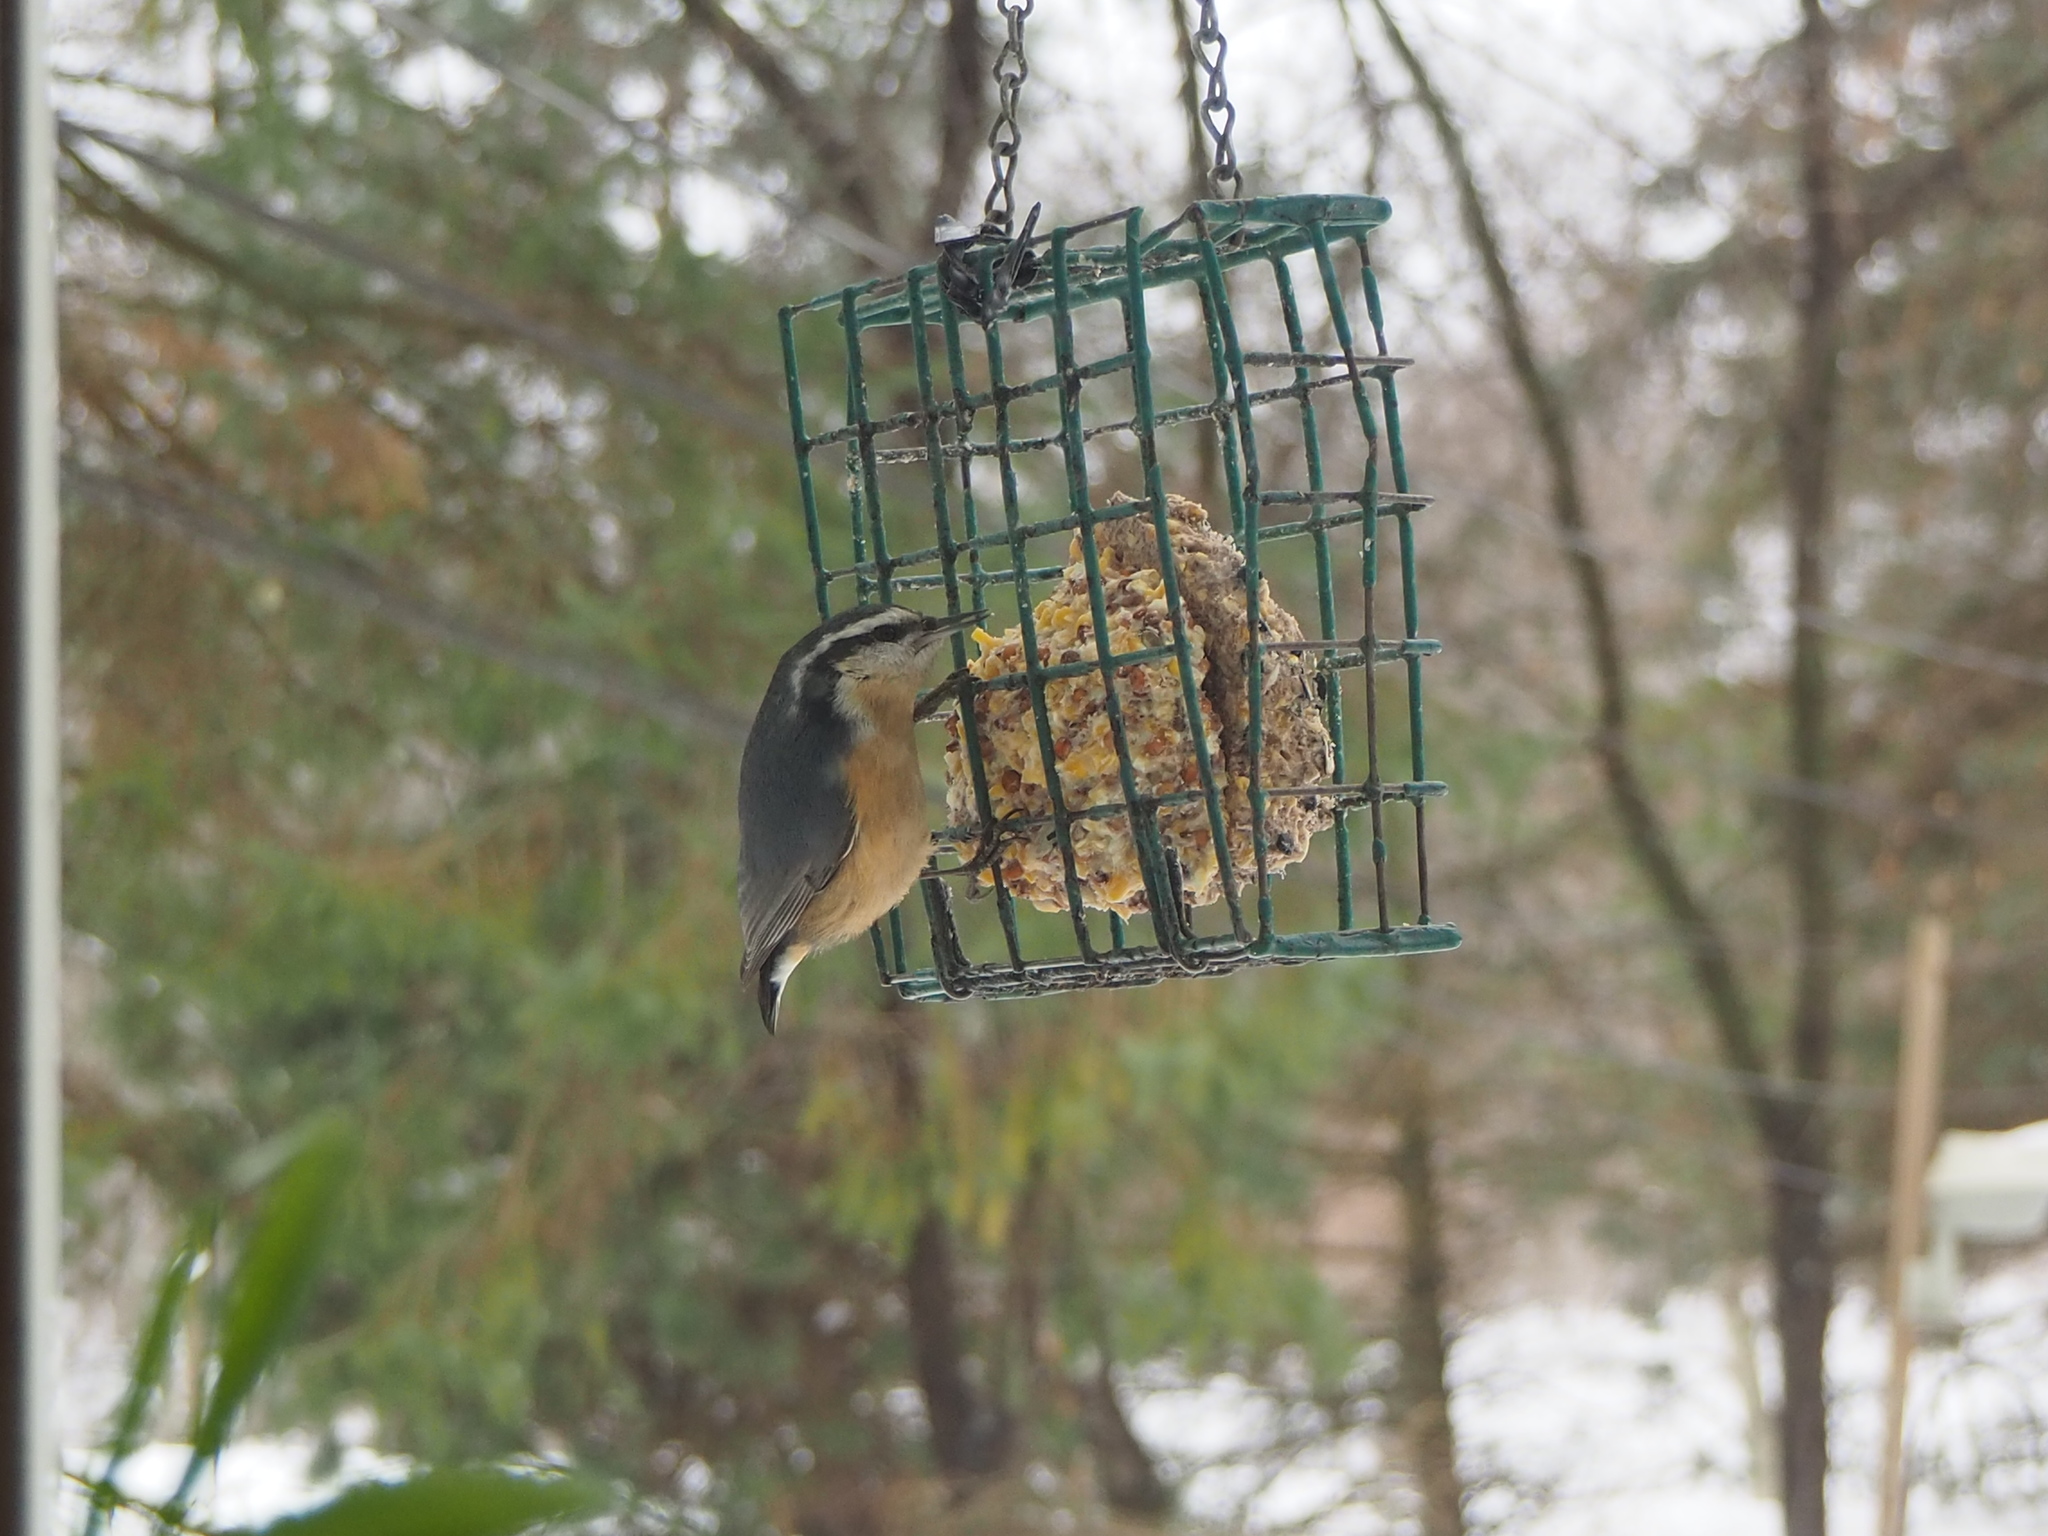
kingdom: Animalia
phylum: Chordata
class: Aves
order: Passeriformes
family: Sittidae
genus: Sitta
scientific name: Sitta canadensis
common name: Red-breasted nuthatch
